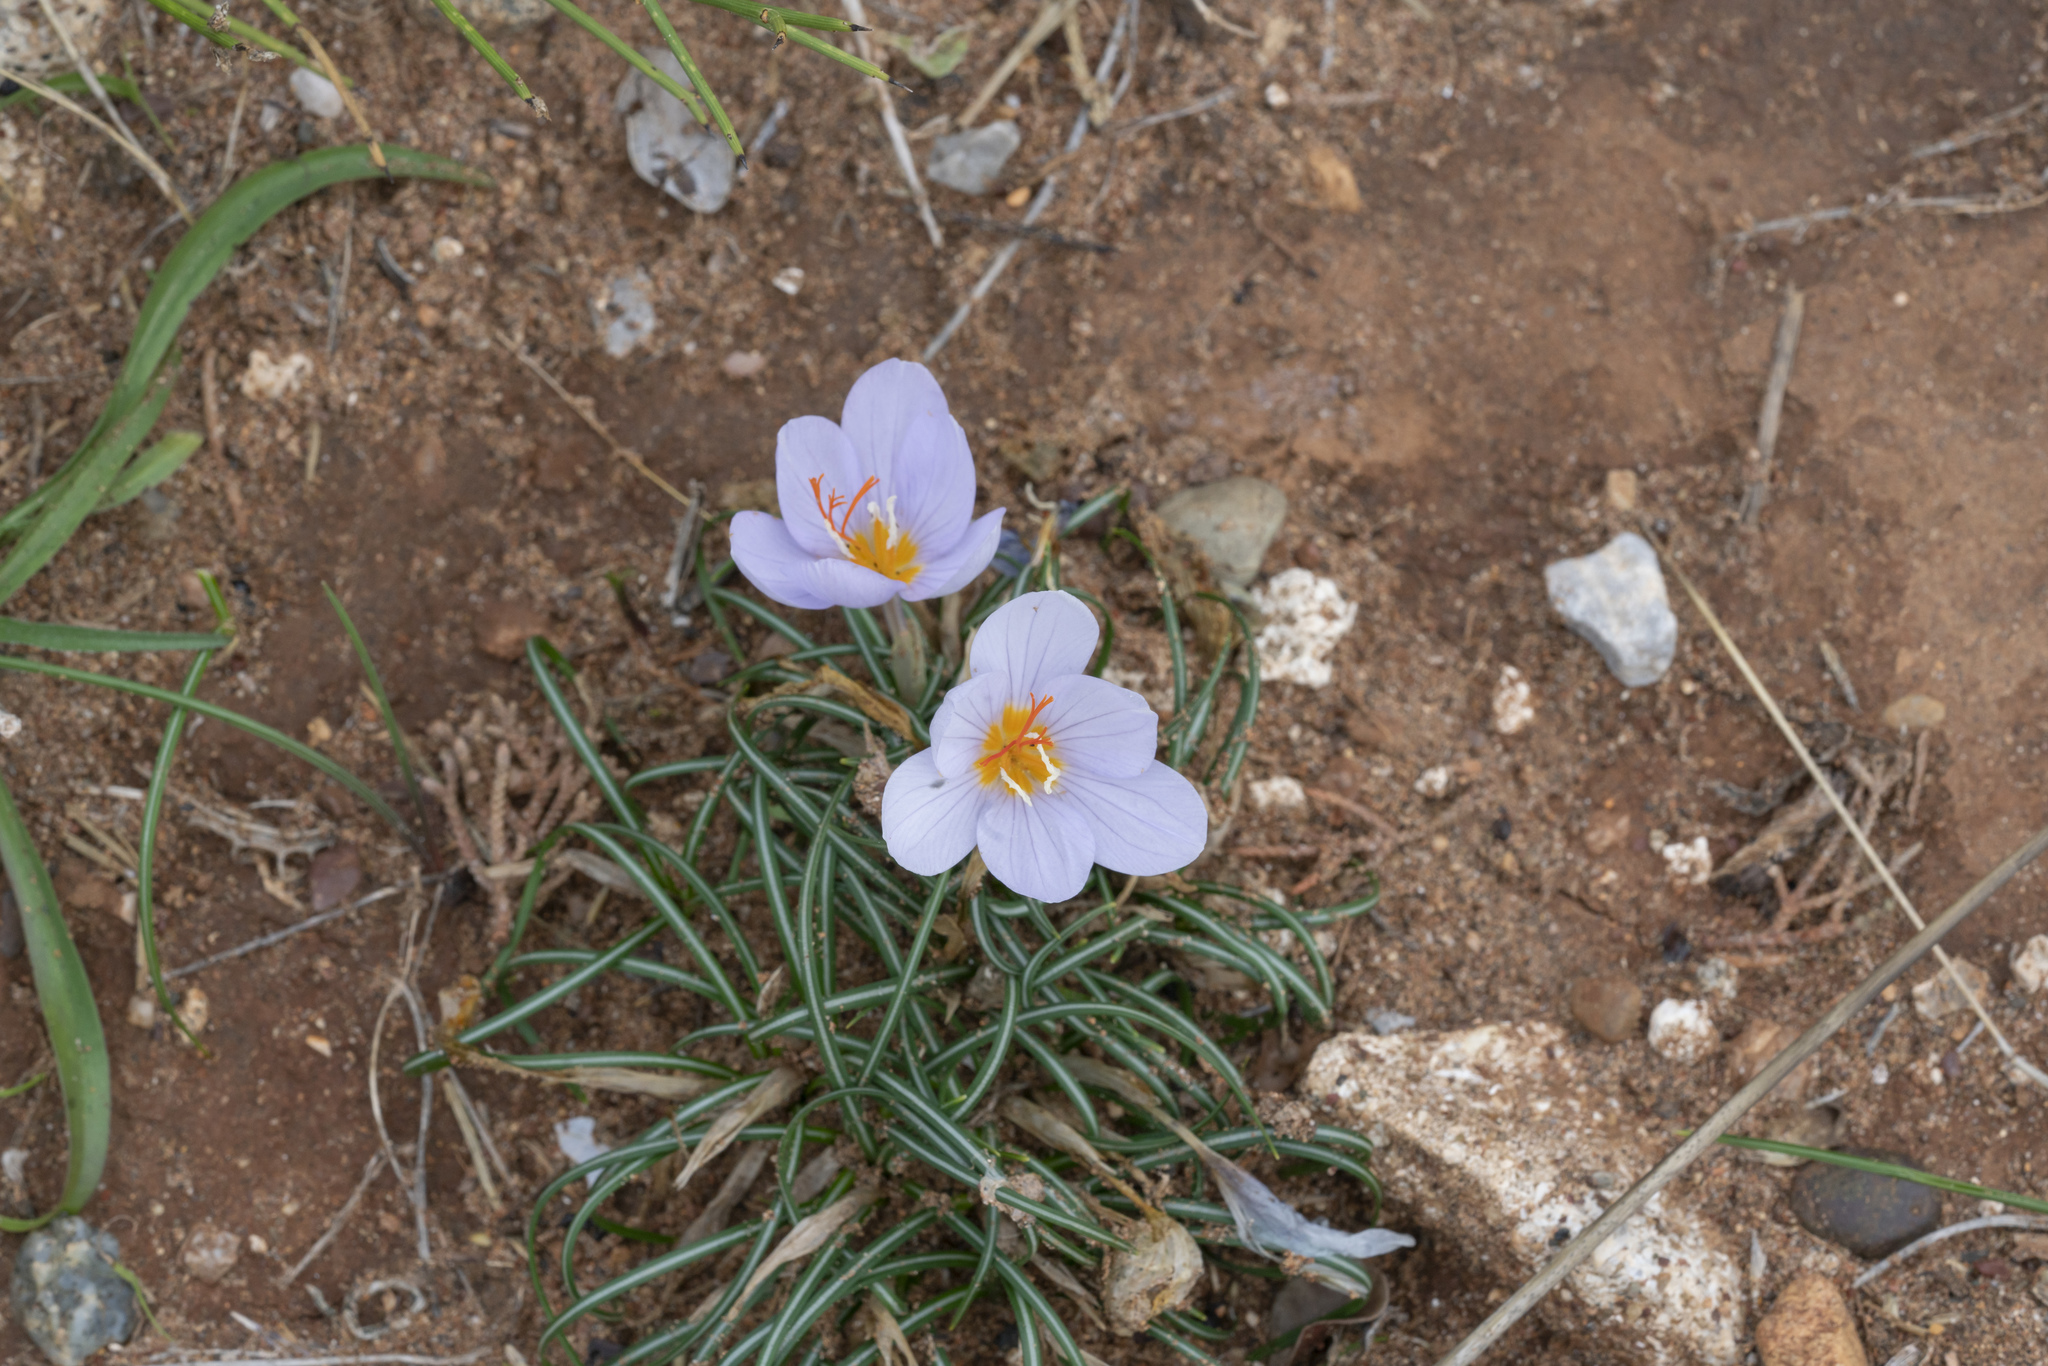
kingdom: Plantae
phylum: Tracheophyta
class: Liliopsida
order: Asparagales
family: Iridaceae
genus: Crocus
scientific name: Crocus tournefortii
